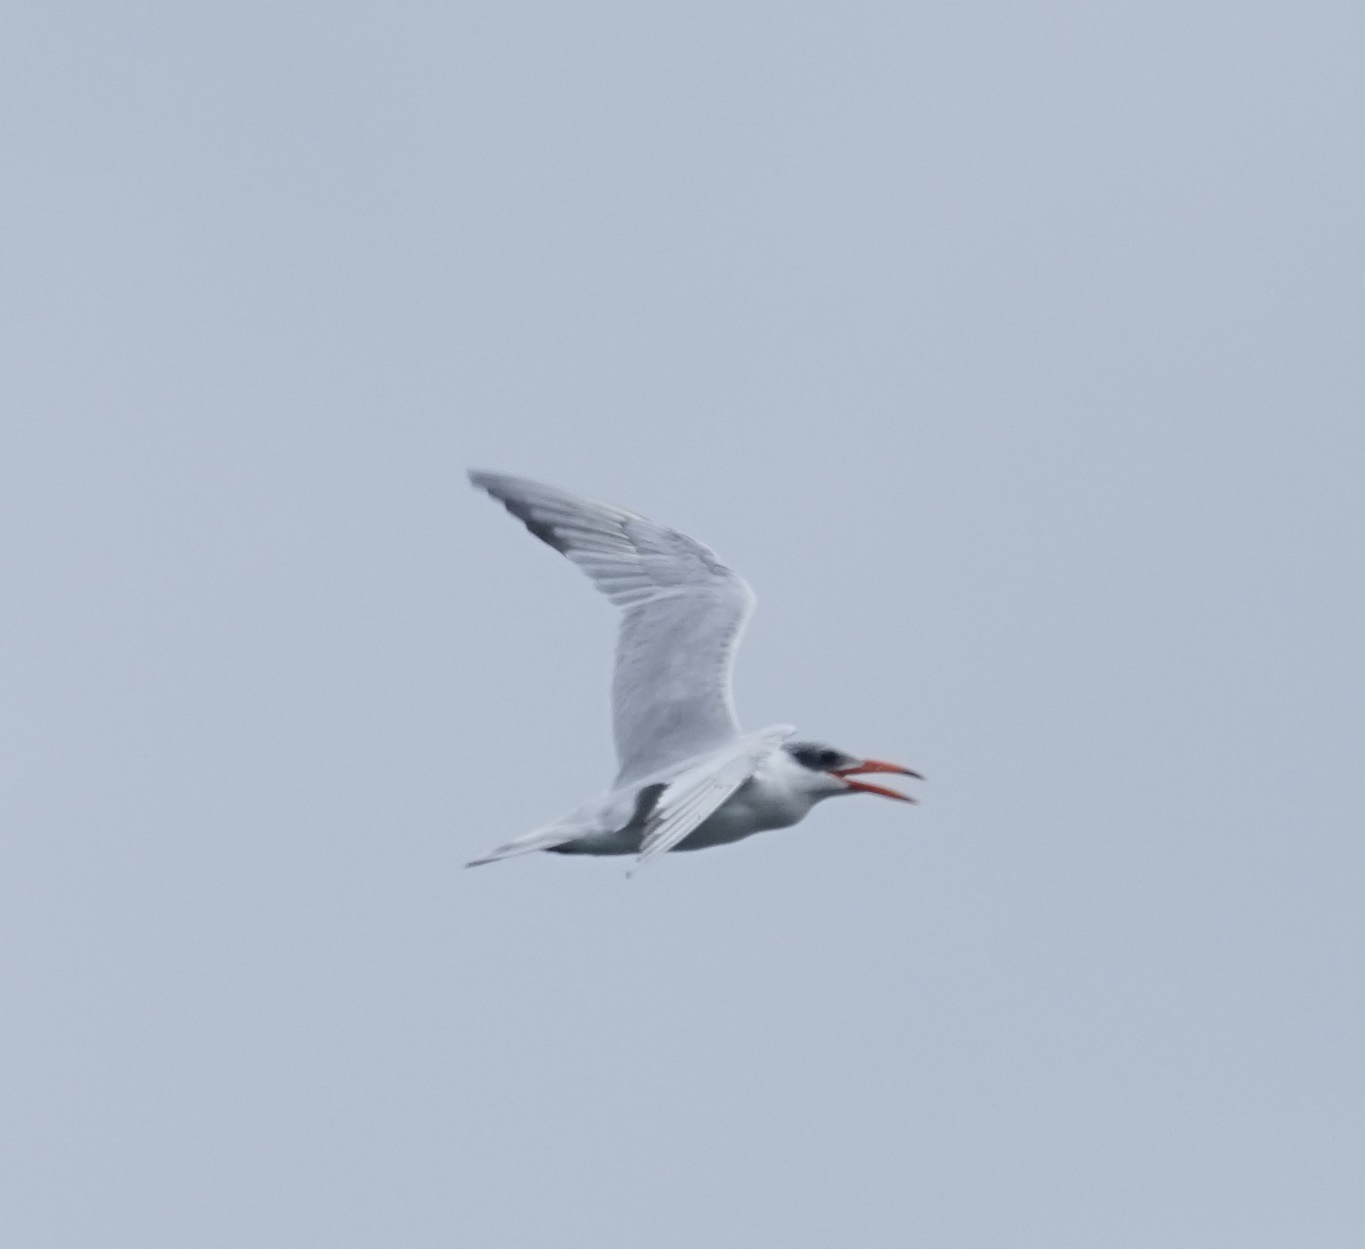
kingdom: Animalia
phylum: Chordata
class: Aves
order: Charadriiformes
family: Laridae
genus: Hydroprogne
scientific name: Hydroprogne caspia
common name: Caspian tern
